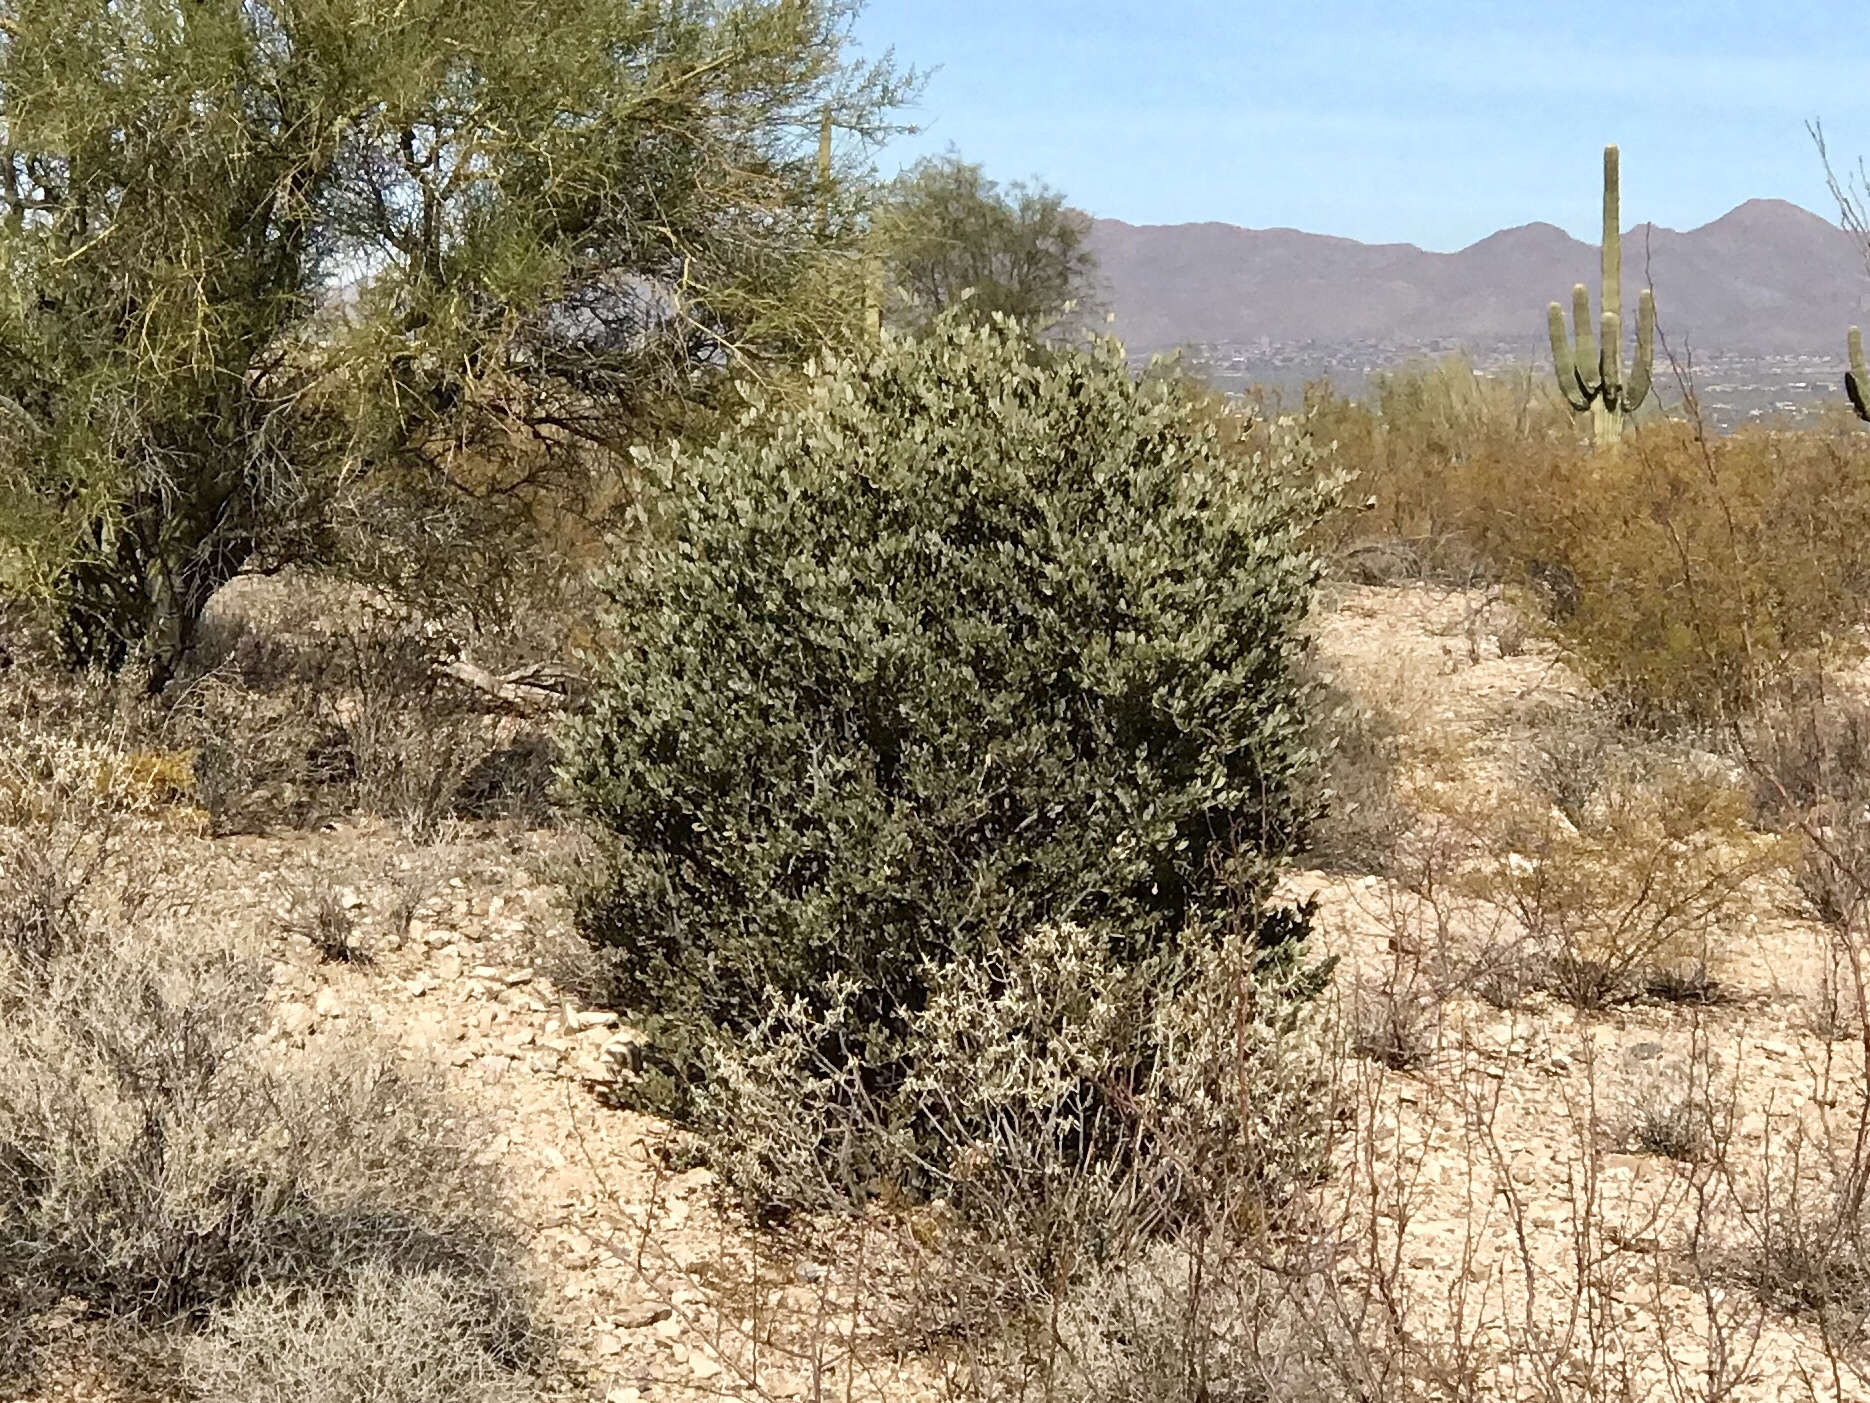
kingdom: Plantae
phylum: Tracheophyta
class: Magnoliopsida
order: Caryophyllales
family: Simmondsiaceae
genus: Simmondsia
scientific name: Simmondsia chinensis
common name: Jojoba
